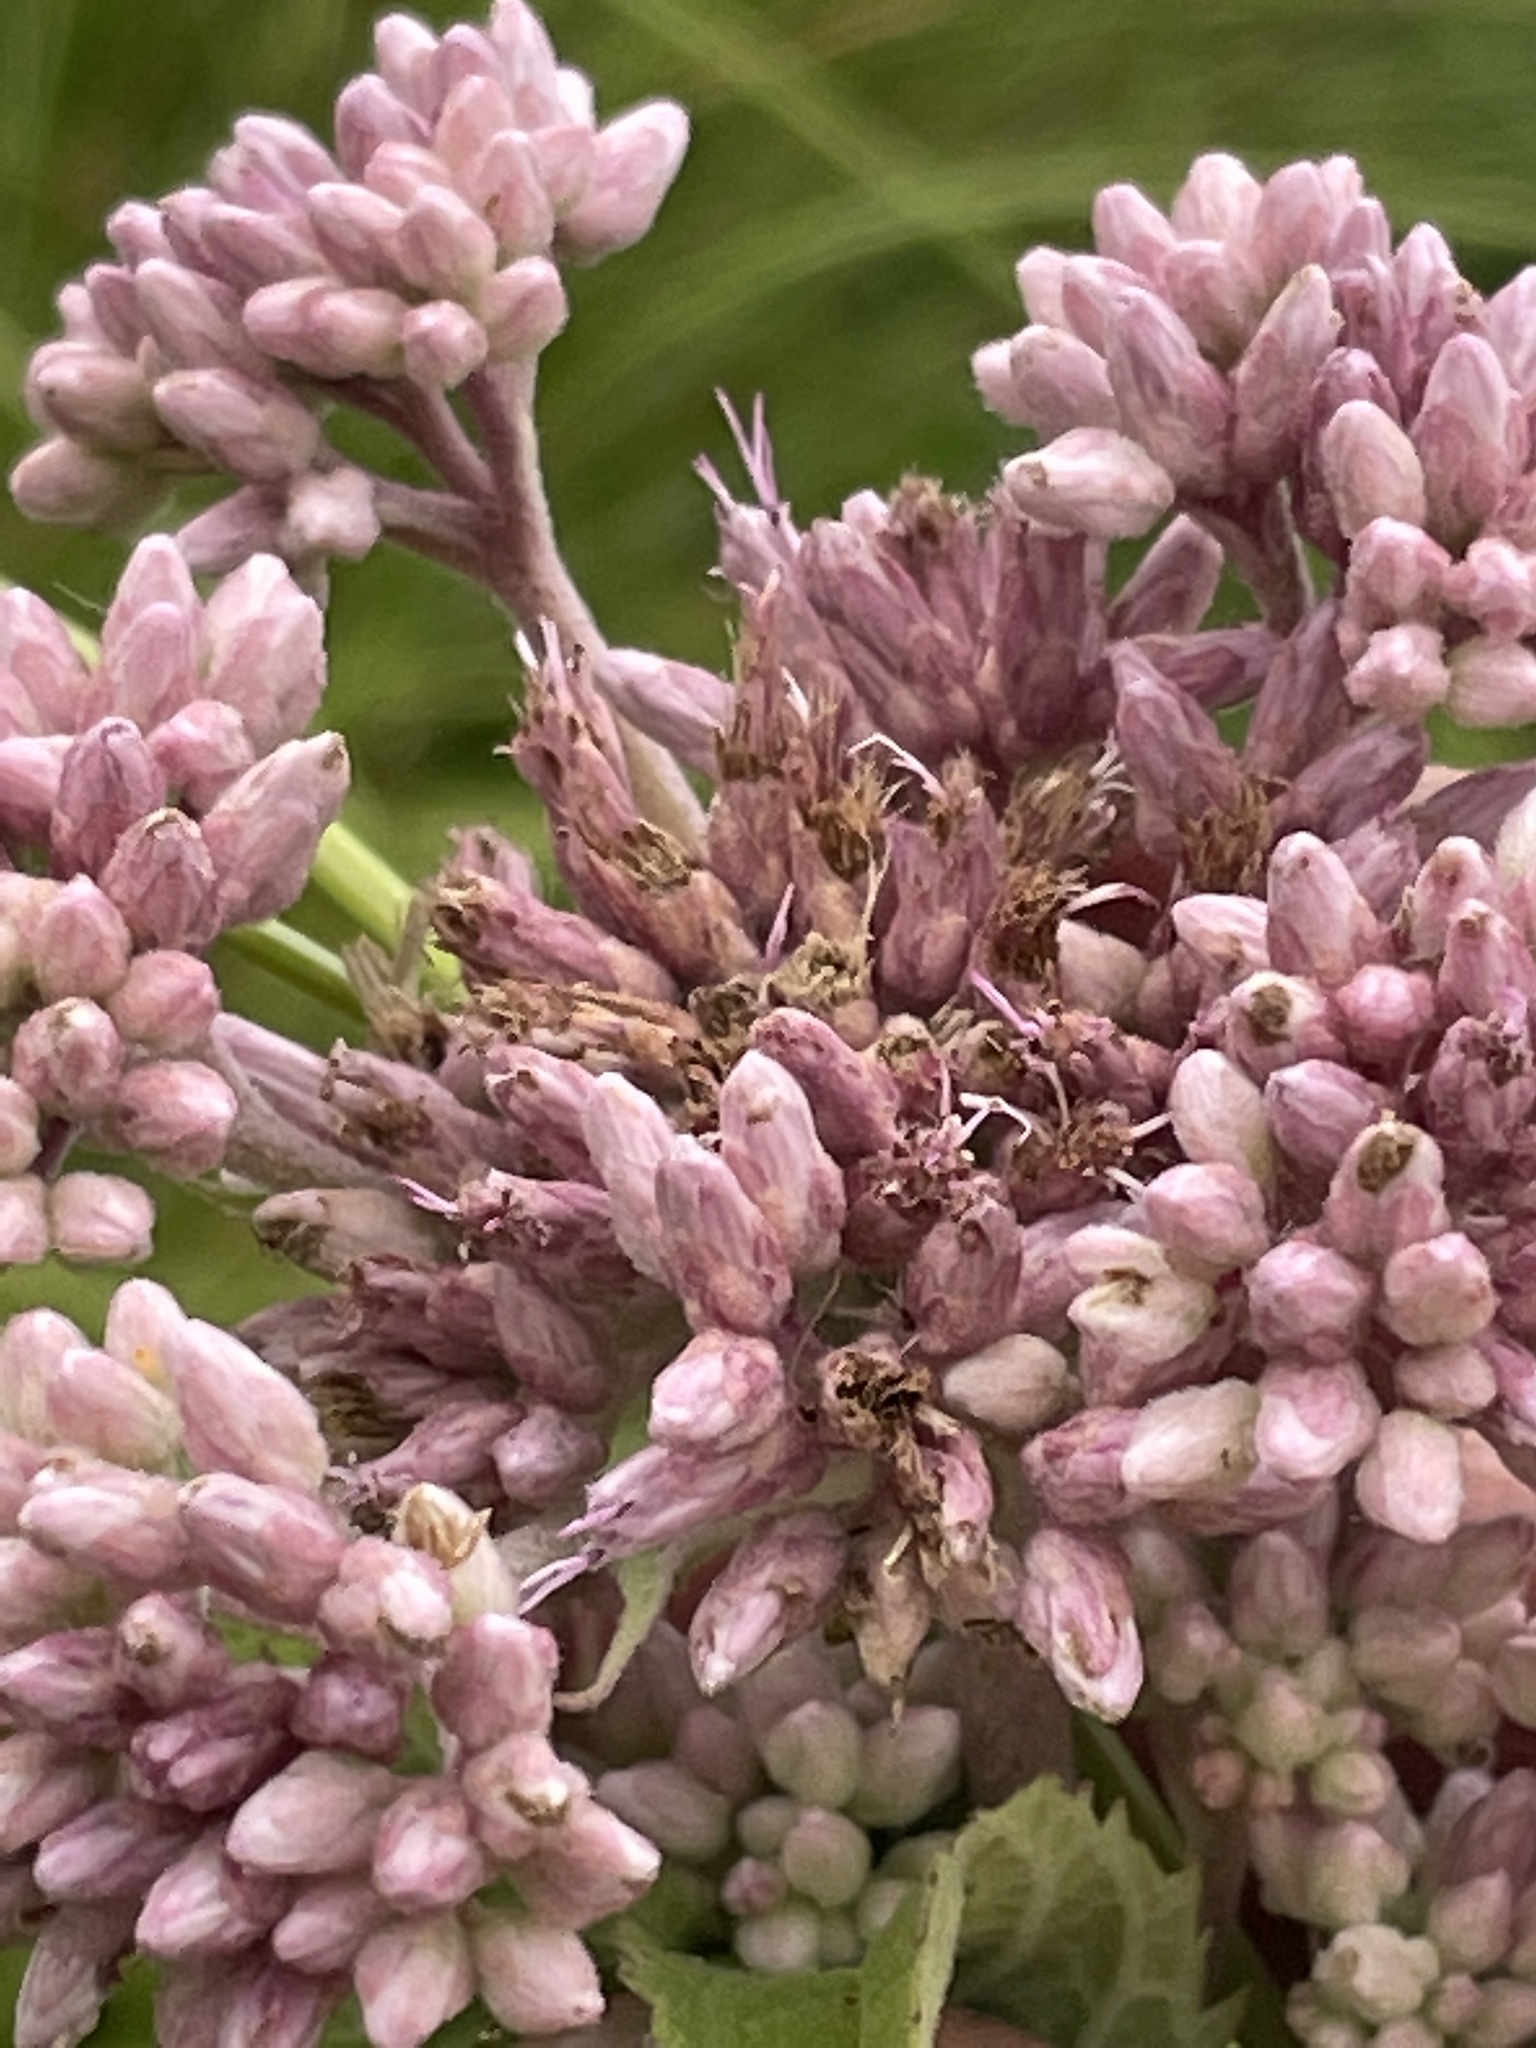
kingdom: Plantae
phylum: Tracheophyta
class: Magnoliopsida
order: Asterales
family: Asteraceae
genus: Eutrochium
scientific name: Eutrochium maculatum
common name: Spotted joe pye weed
